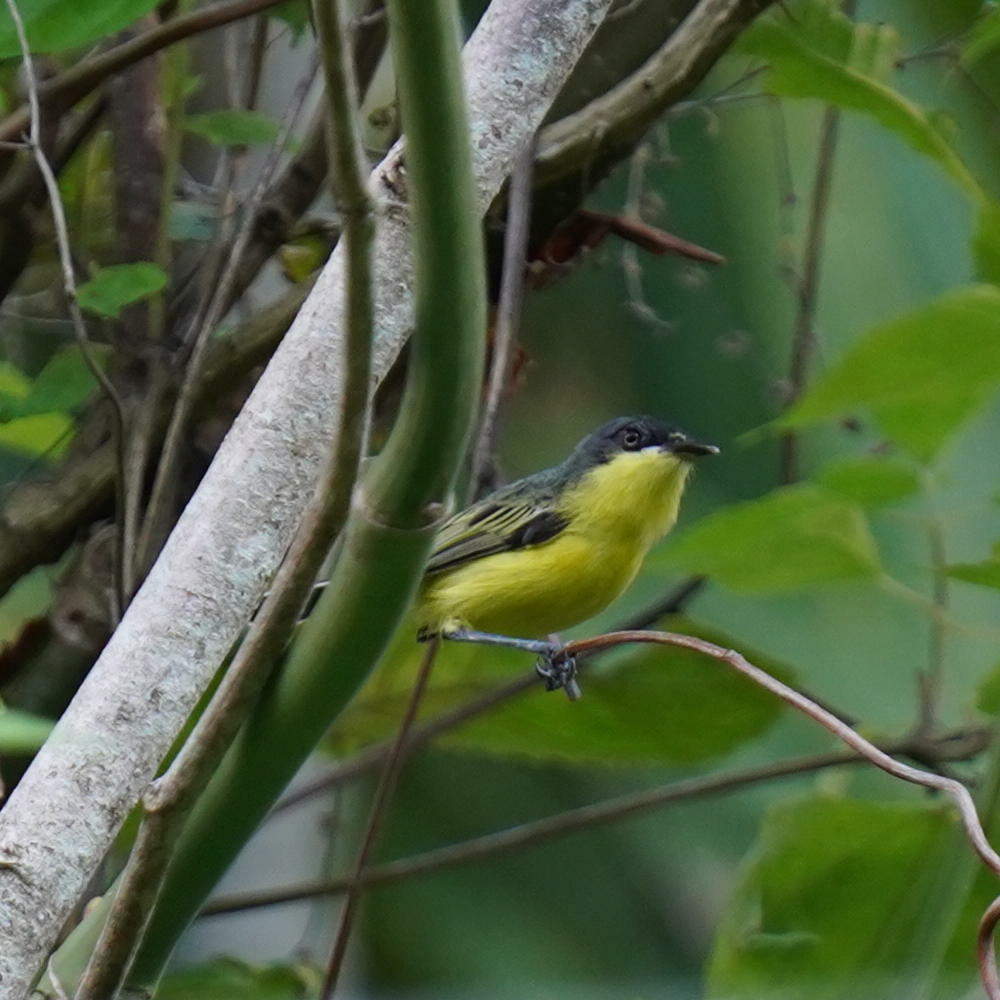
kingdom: Animalia
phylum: Chordata
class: Aves
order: Passeriformes
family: Tyrannidae
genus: Todirostrum
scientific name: Todirostrum cinereum
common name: Common tody-flycatcher
